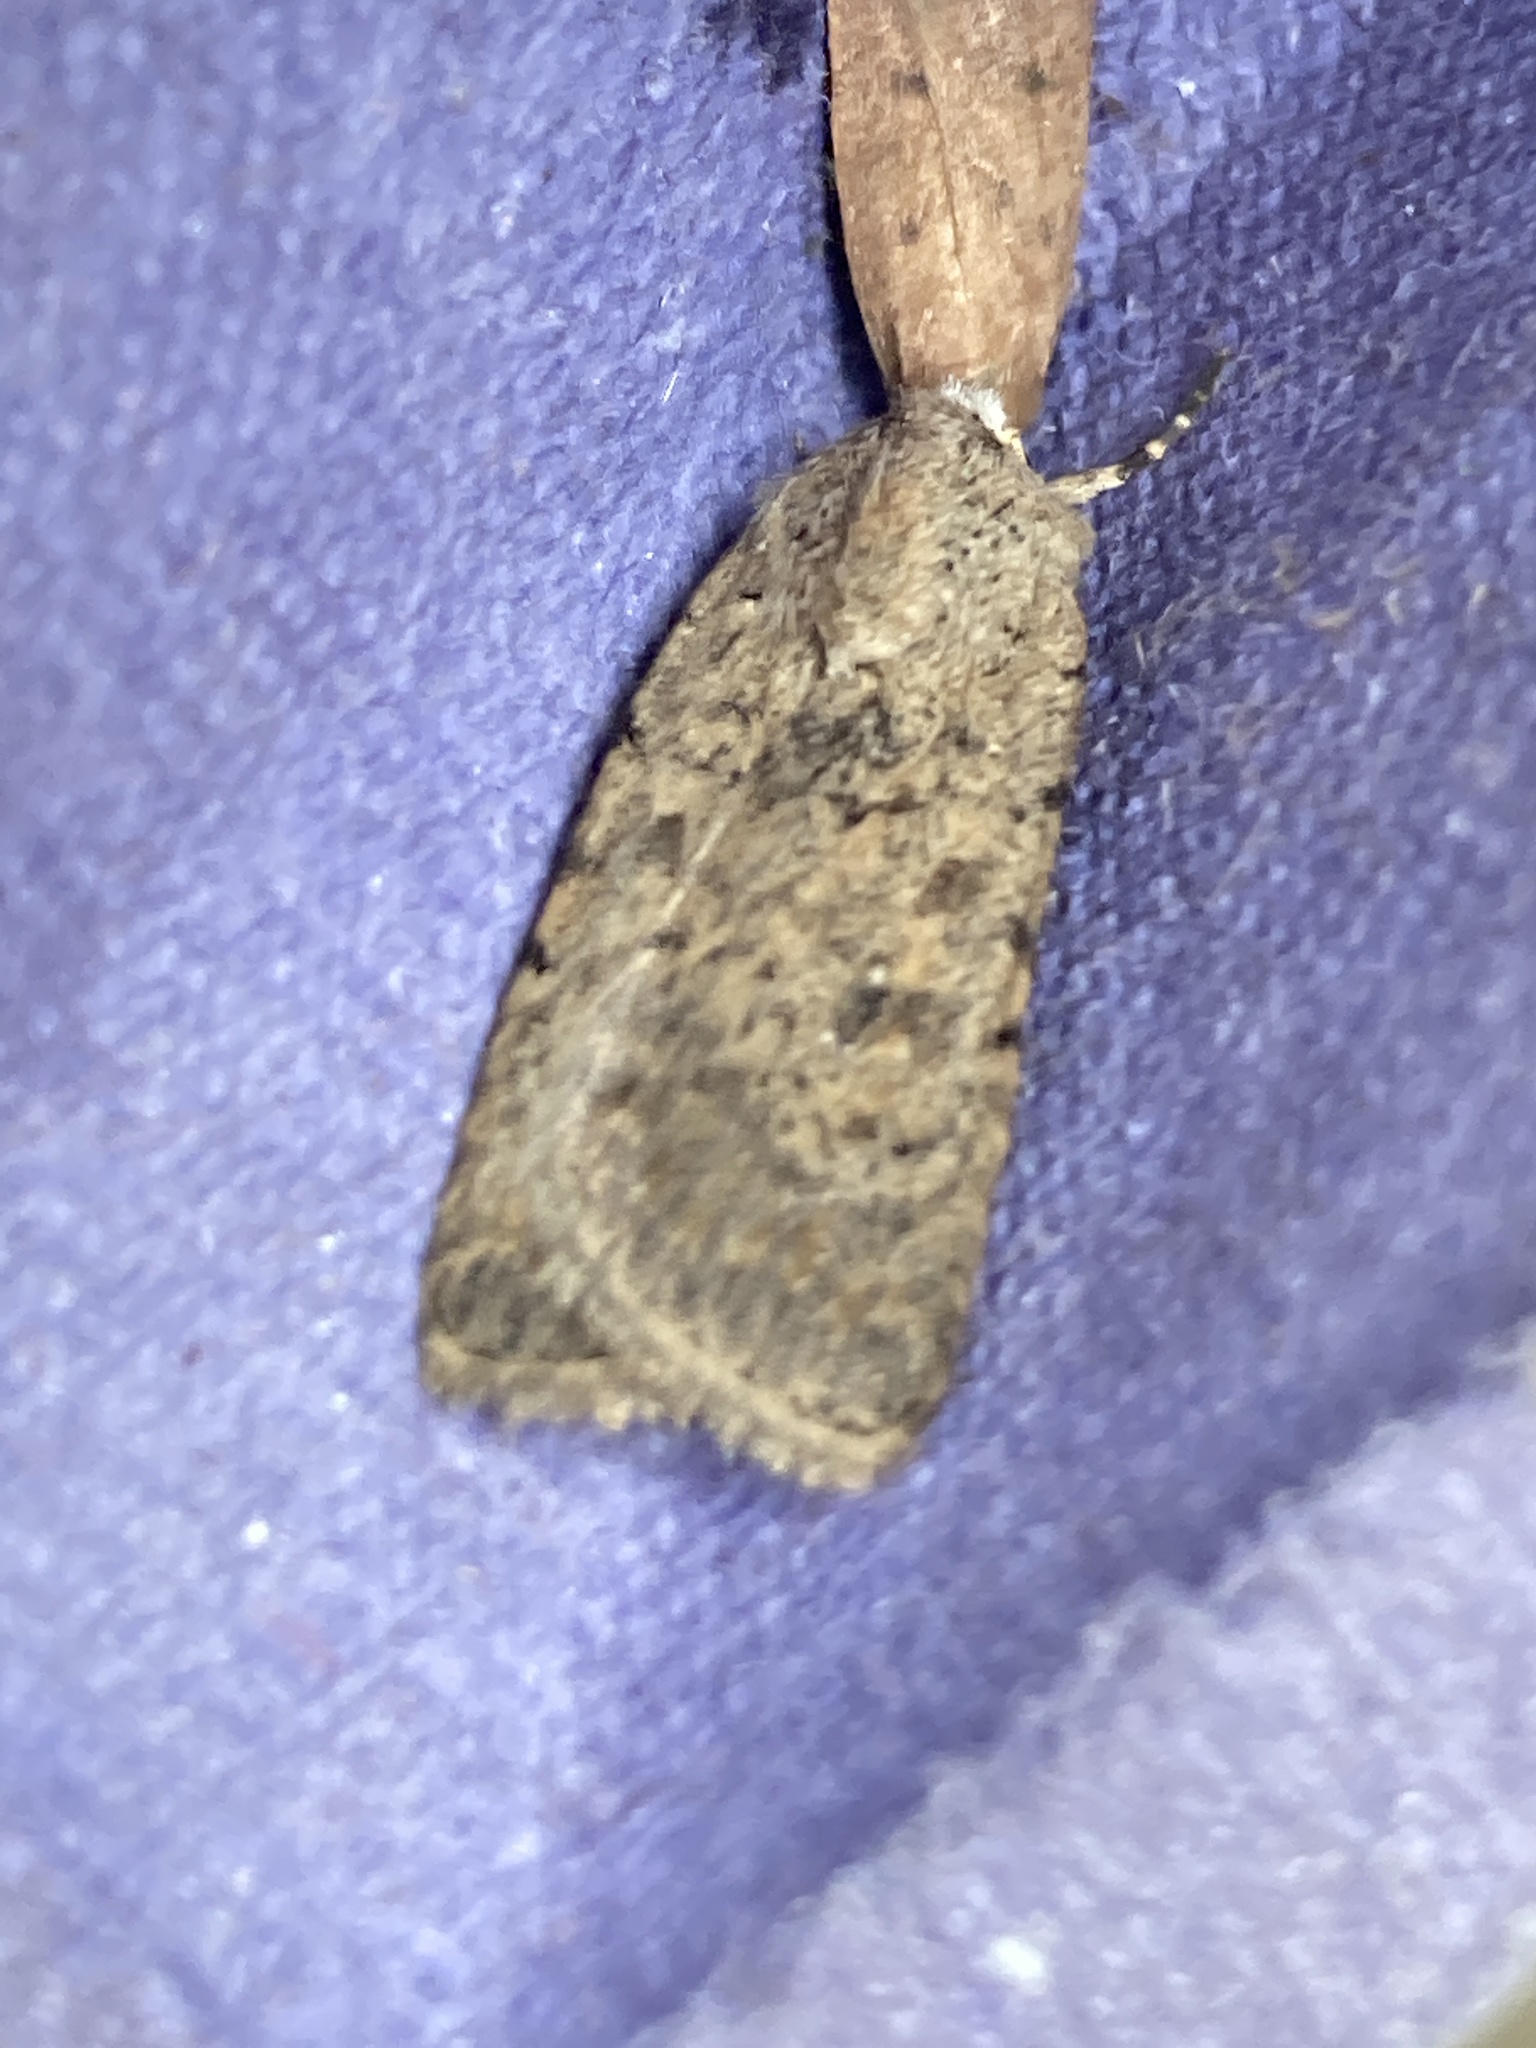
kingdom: Animalia
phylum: Arthropoda
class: Insecta
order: Lepidoptera
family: Noctuidae
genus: Caradrina
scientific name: Caradrina clavipalpis
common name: Pale mottled willow
